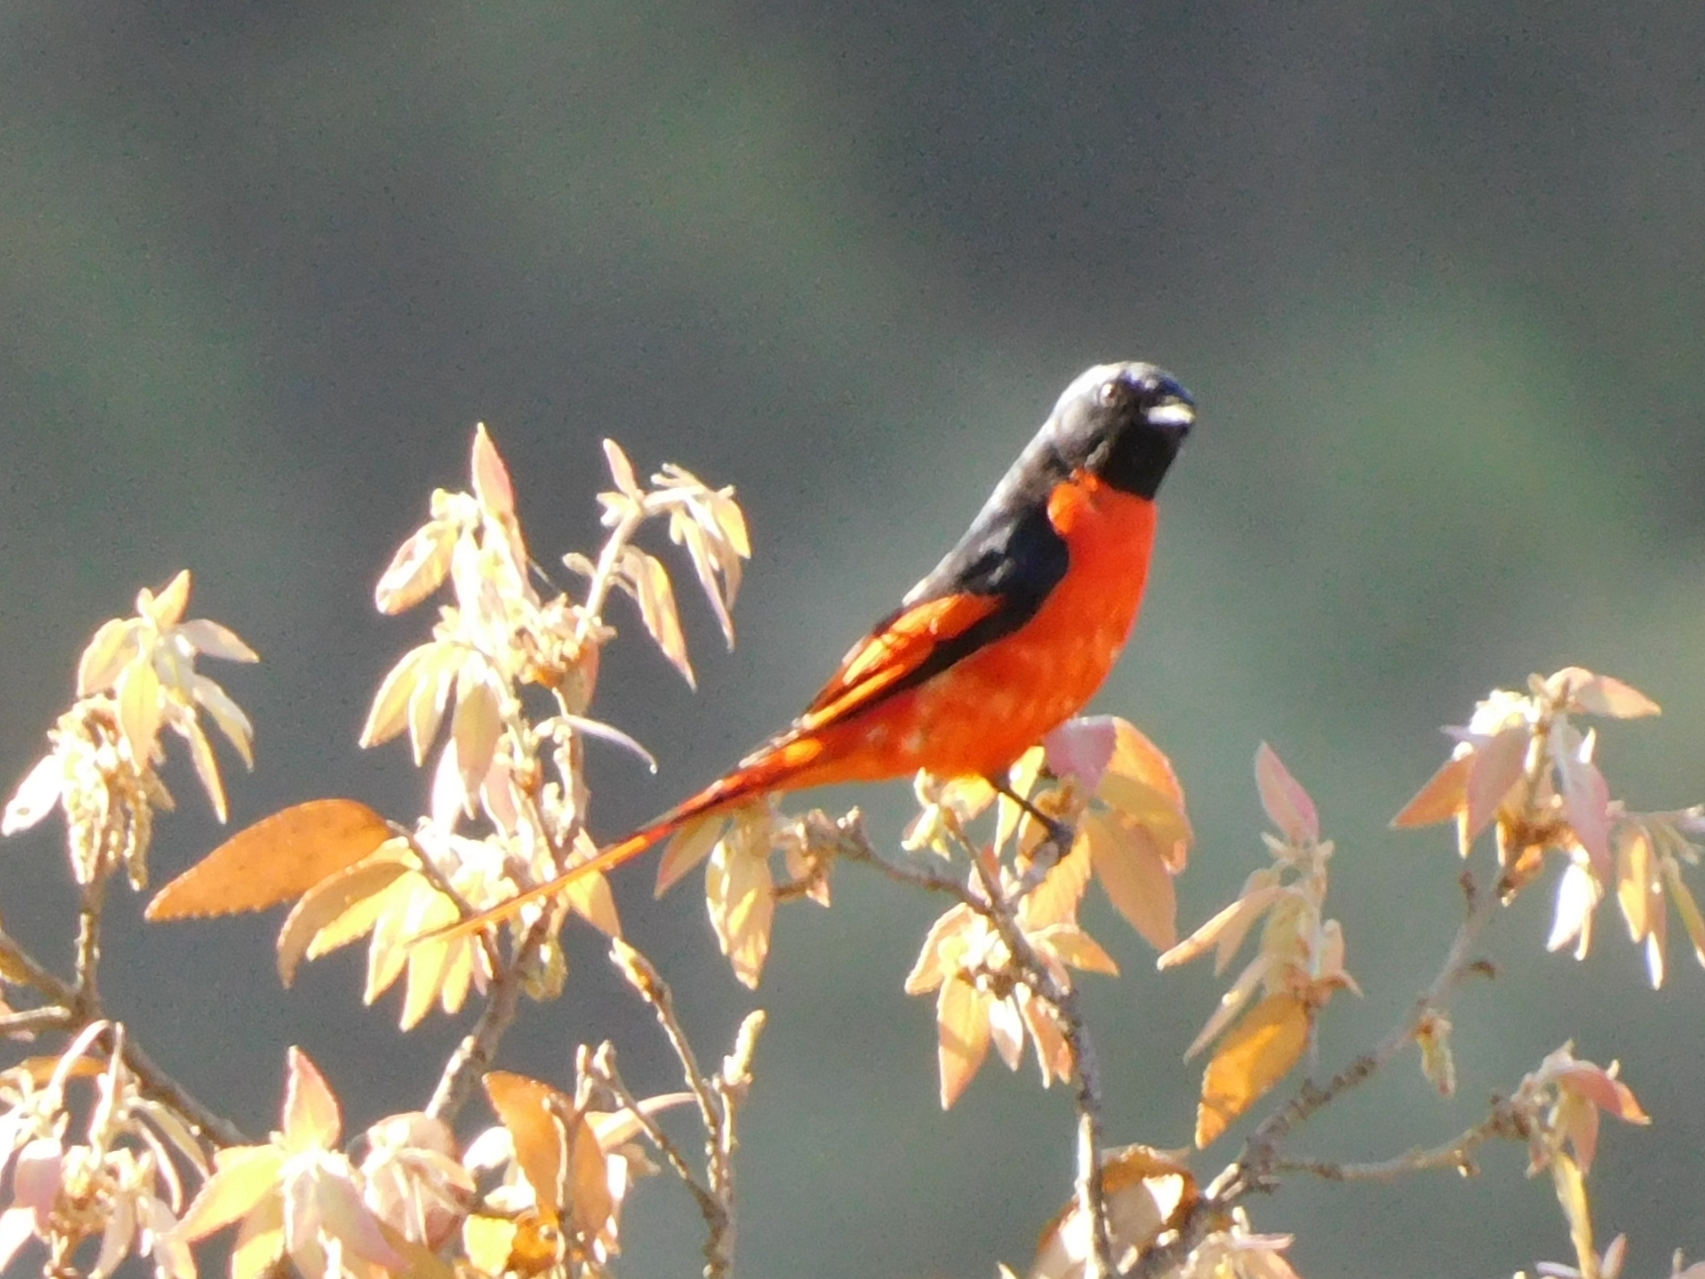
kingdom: Animalia
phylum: Chordata
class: Aves
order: Passeriformes
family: Campephagidae
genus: Pericrocotus
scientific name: Pericrocotus ethologus
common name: Long-tailed minivet
